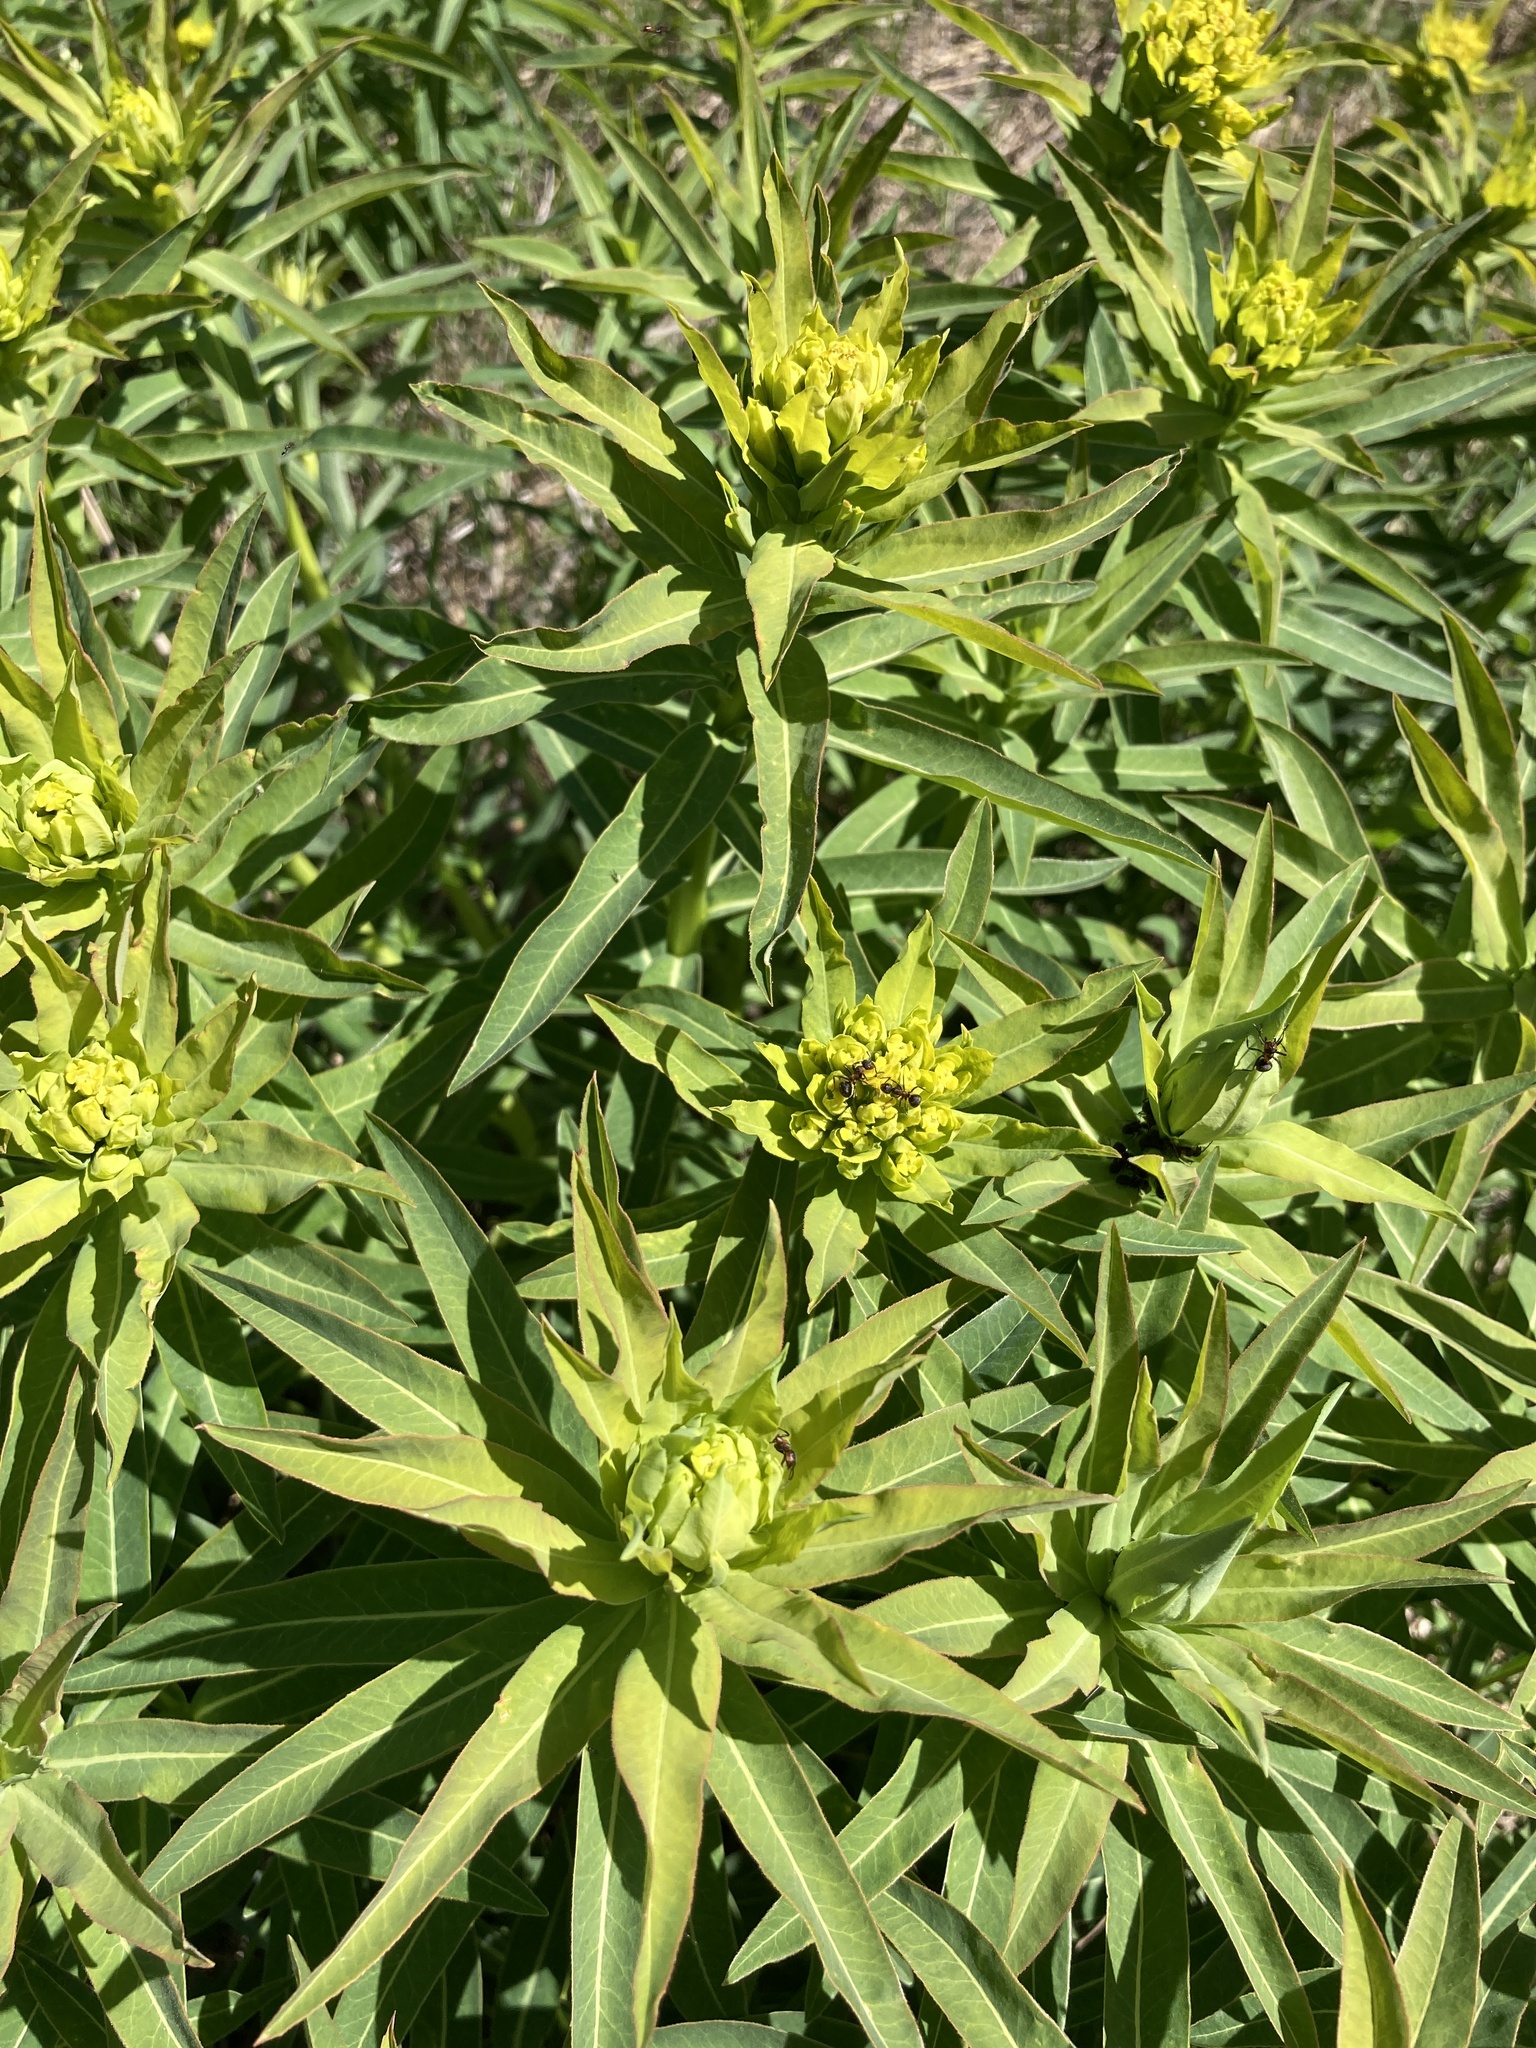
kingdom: Plantae
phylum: Tracheophyta
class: Magnoliopsida
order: Malpighiales
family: Euphorbiaceae
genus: Euphorbia
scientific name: Euphorbia semivillosa
